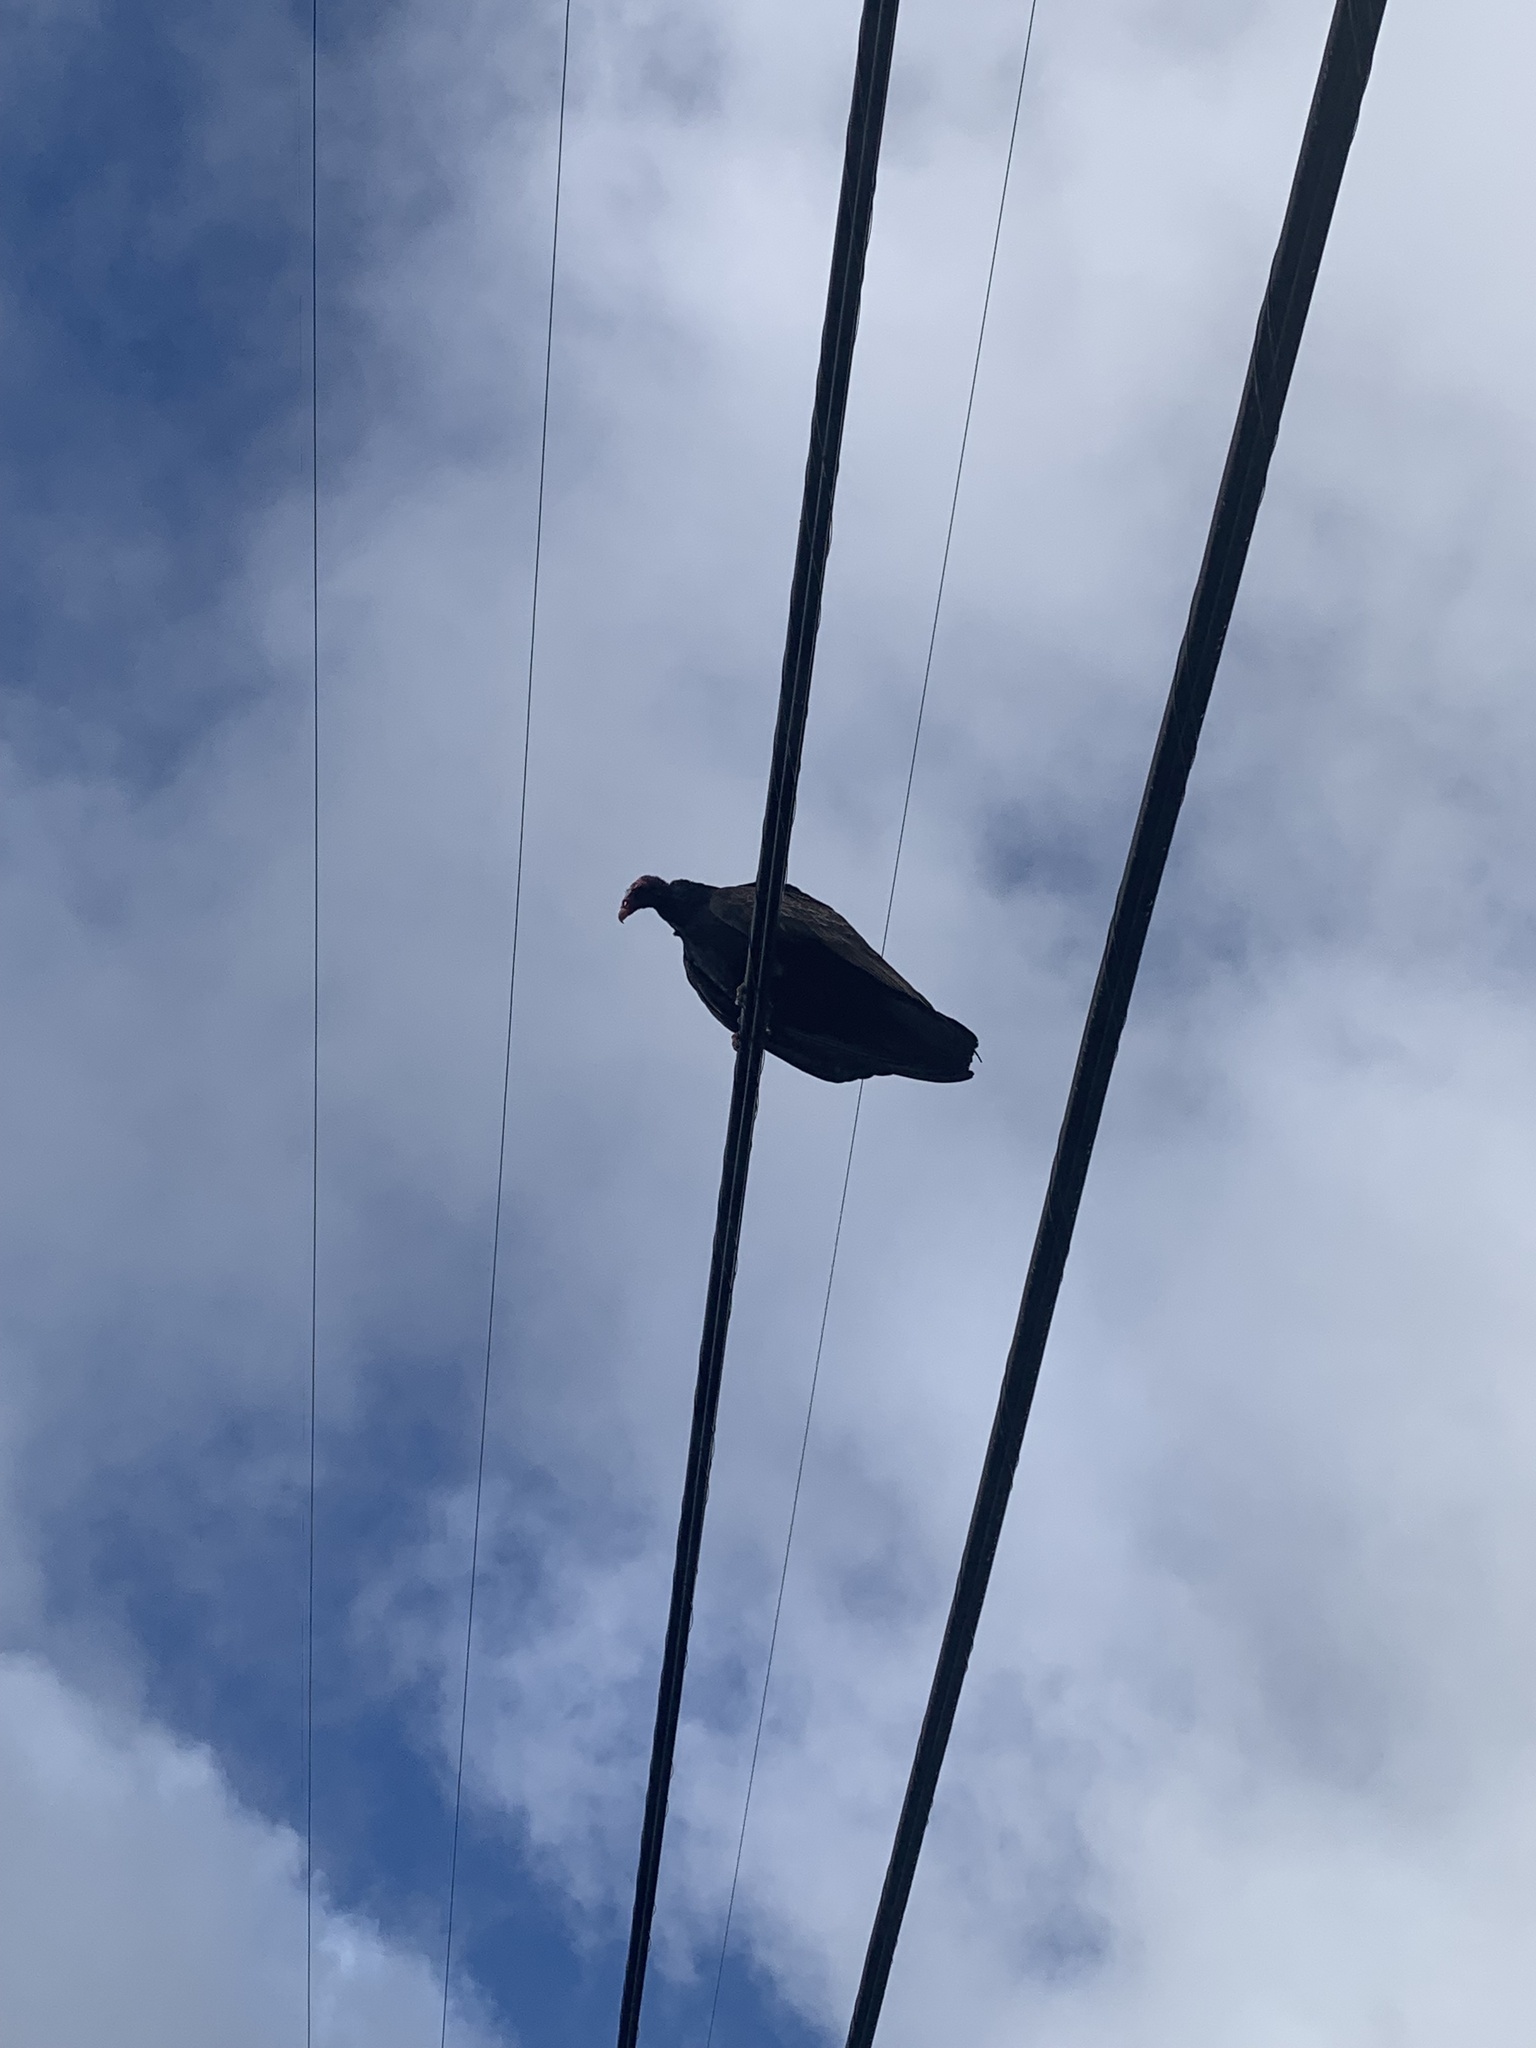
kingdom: Animalia
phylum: Chordata
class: Aves
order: Accipitriformes
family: Cathartidae
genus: Cathartes
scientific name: Cathartes aura
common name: Turkey vulture
